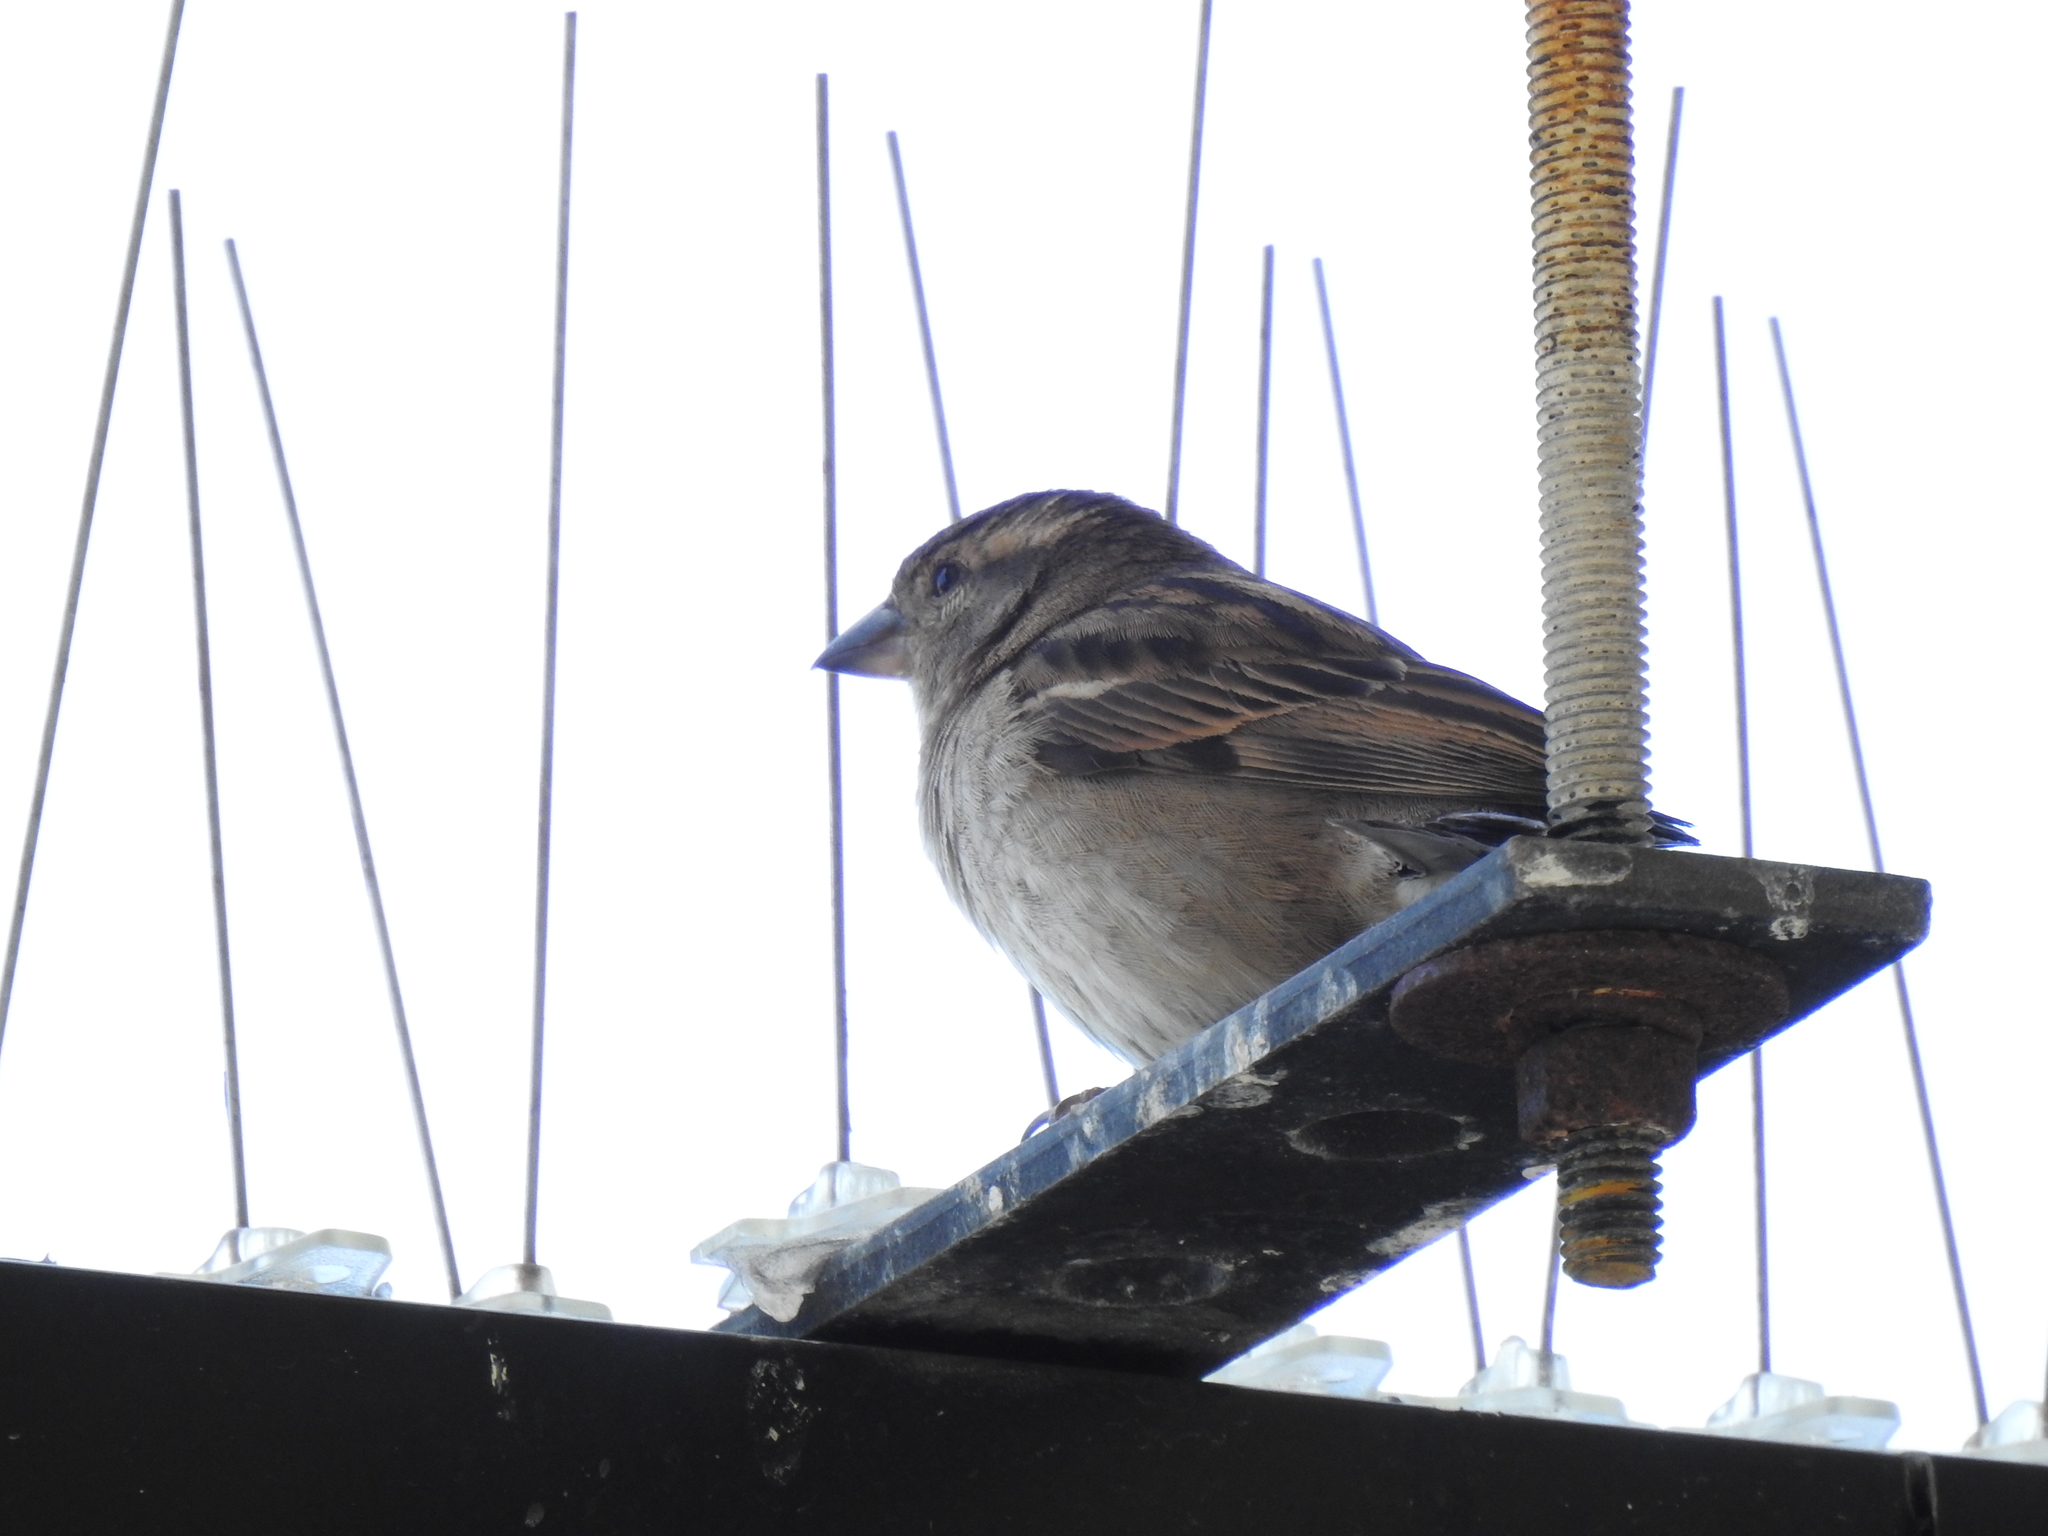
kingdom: Animalia
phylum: Chordata
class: Aves
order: Passeriformes
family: Passeridae
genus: Passer
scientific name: Passer domesticus
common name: House sparrow
